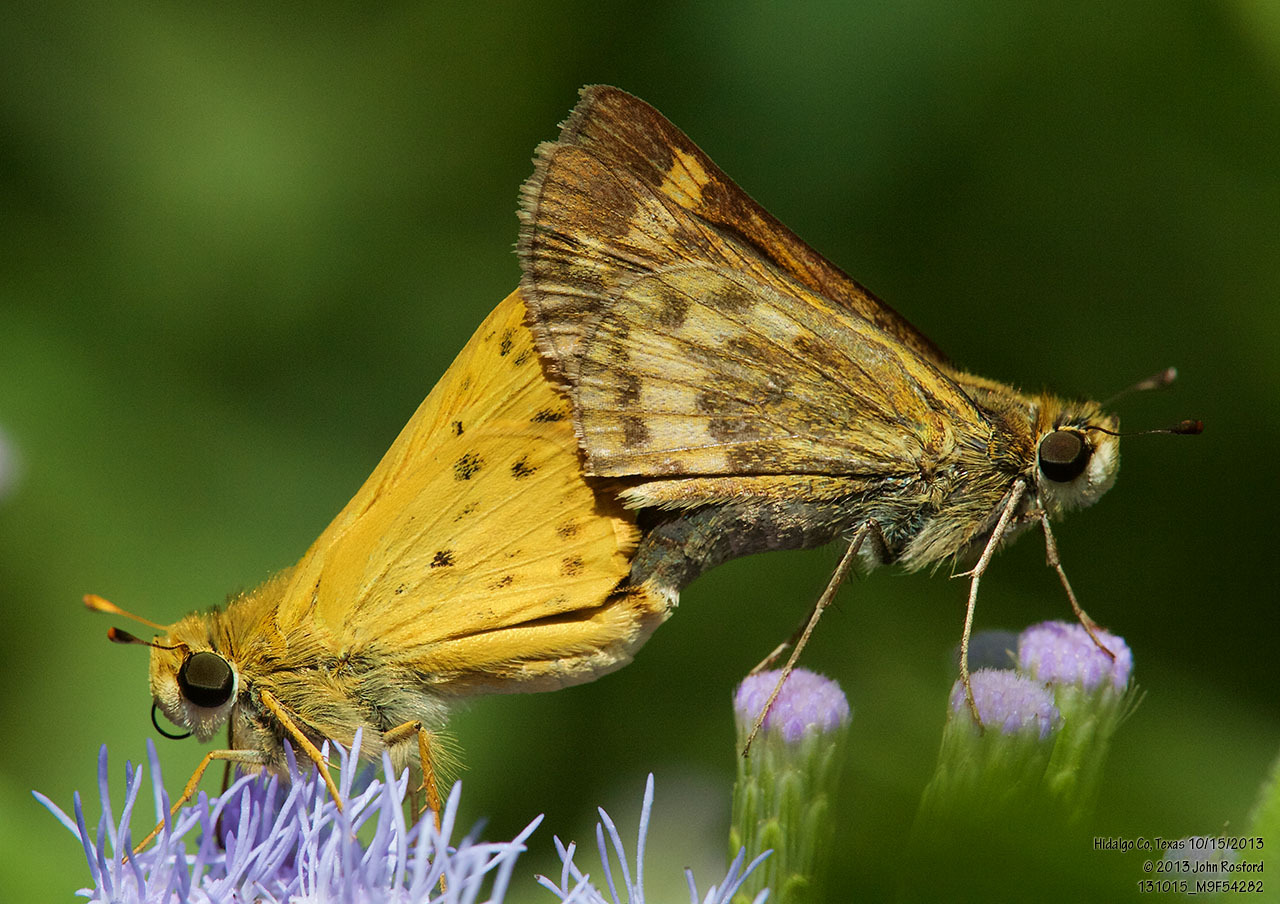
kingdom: Animalia
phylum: Arthropoda
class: Insecta
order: Lepidoptera
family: Hesperiidae
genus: Hylephila
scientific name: Hylephila phyleus
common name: Fiery skipper
